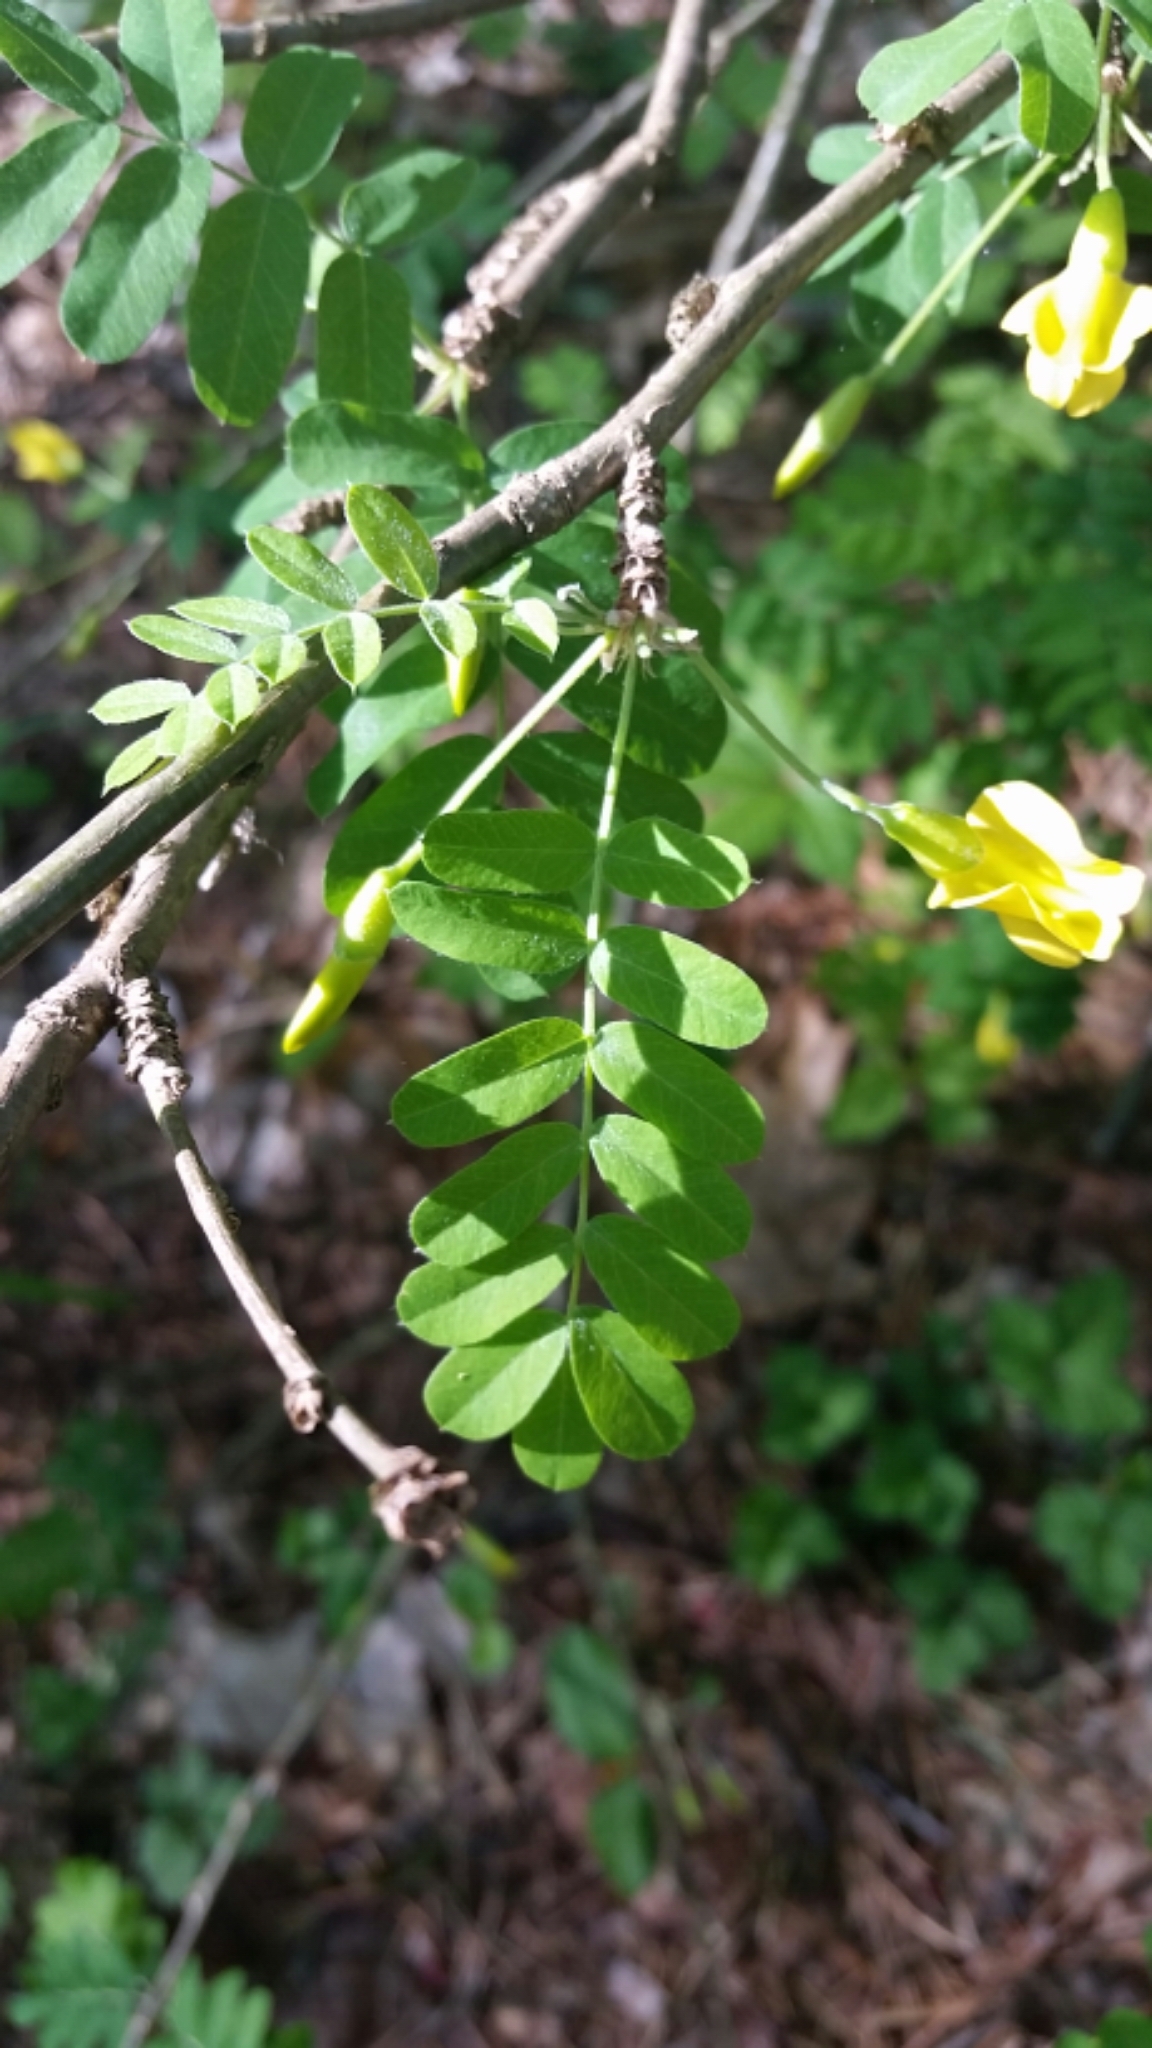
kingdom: Plantae
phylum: Tracheophyta
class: Magnoliopsida
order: Fabales
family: Fabaceae
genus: Caragana
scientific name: Caragana arborescens
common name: Siberian peashrub
